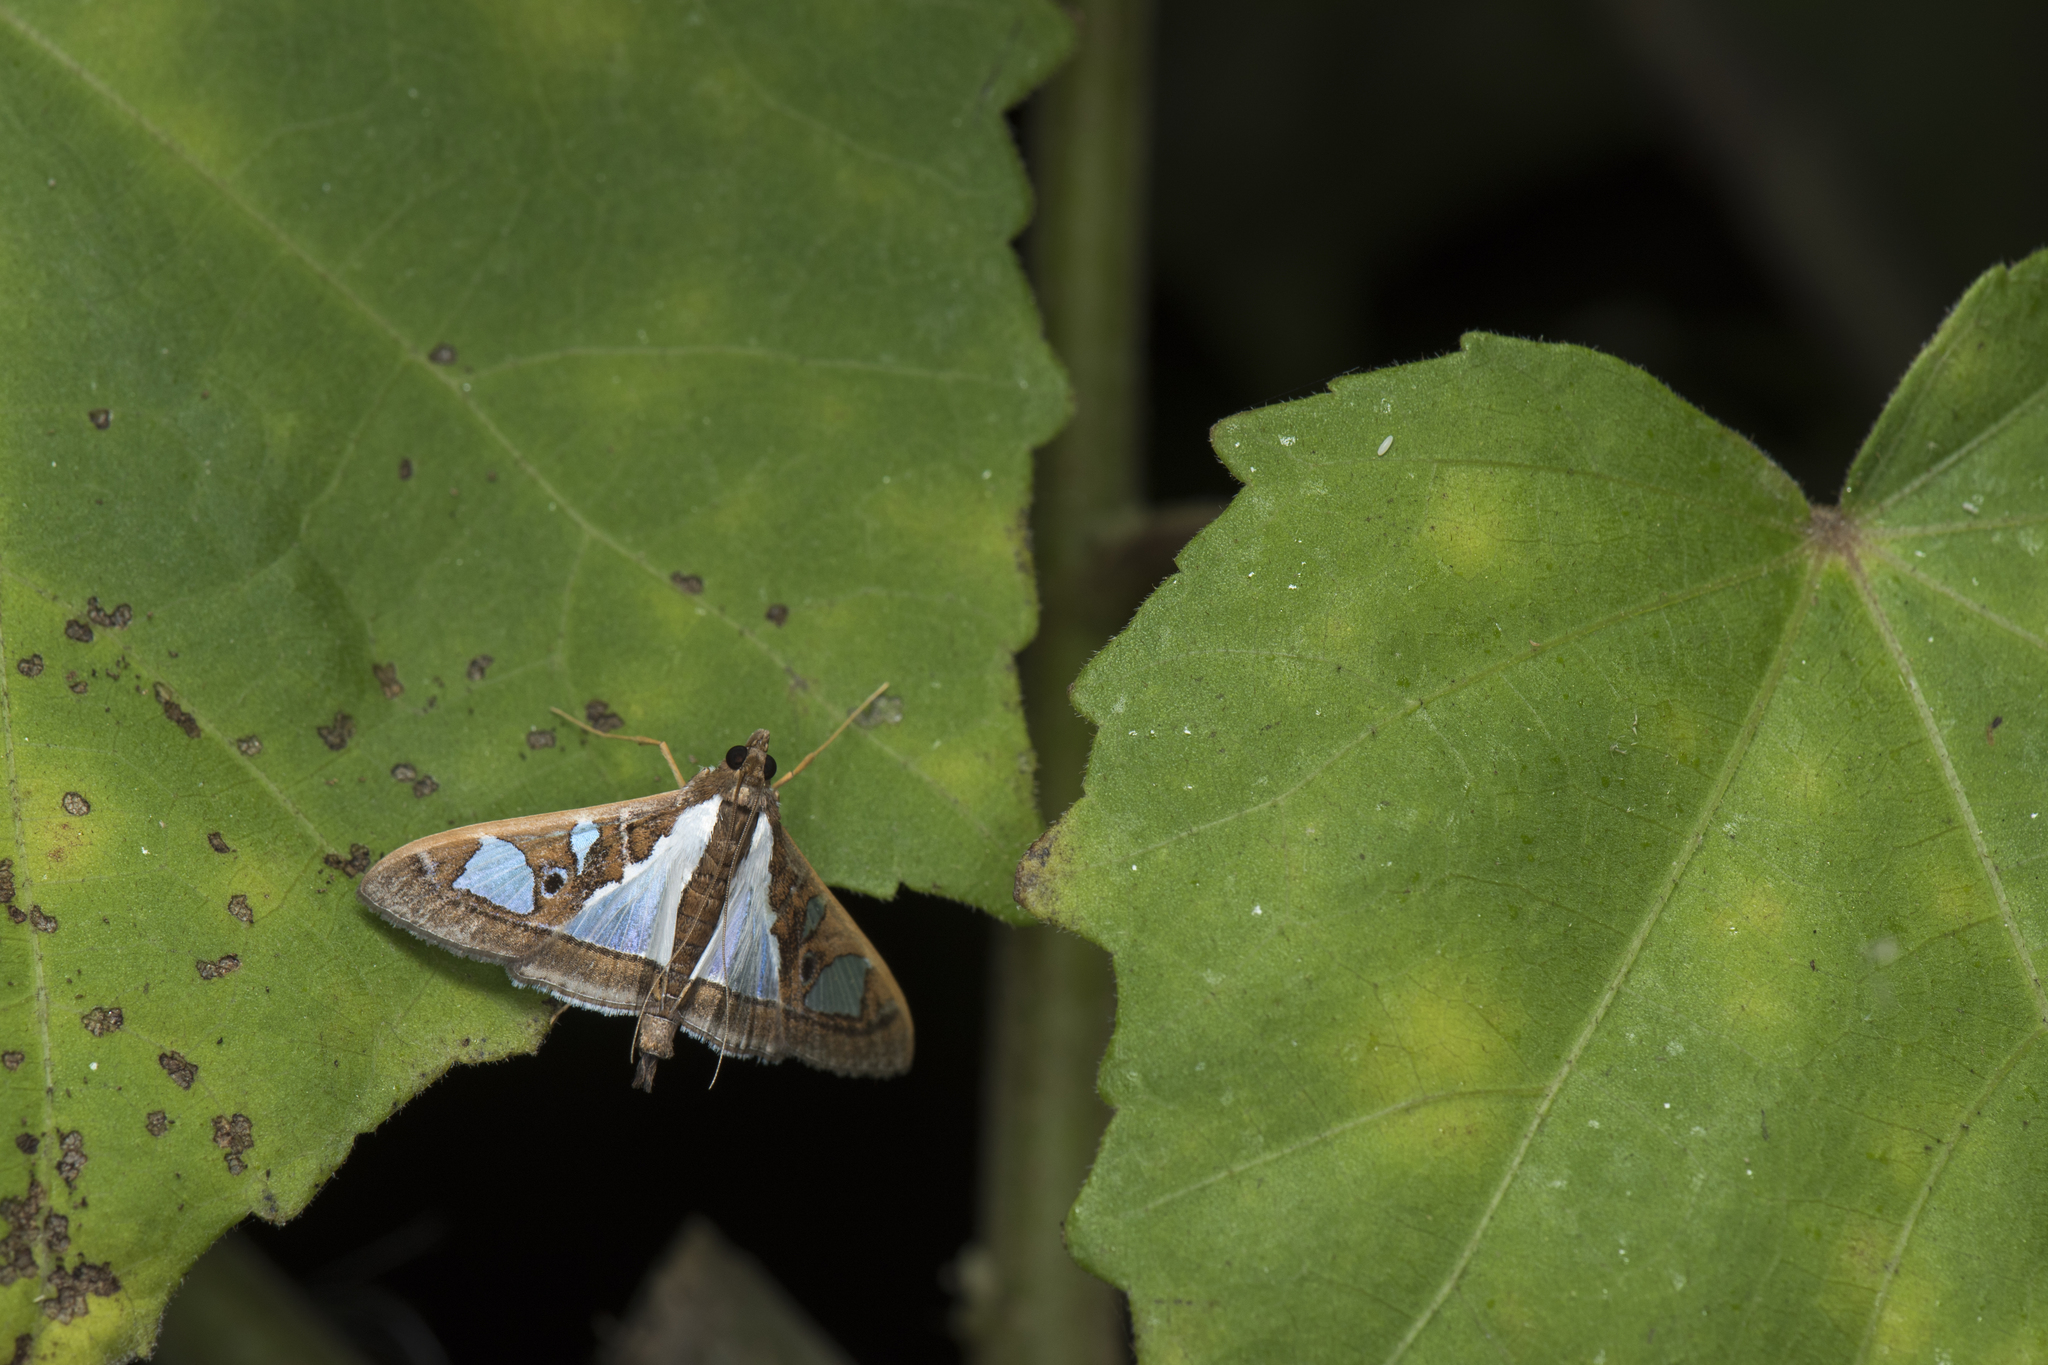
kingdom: Animalia
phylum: Arthropoda
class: Insecta
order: Lepidoptera
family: Crambidae
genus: Glyphodes
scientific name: Glyphodes bivitralis
